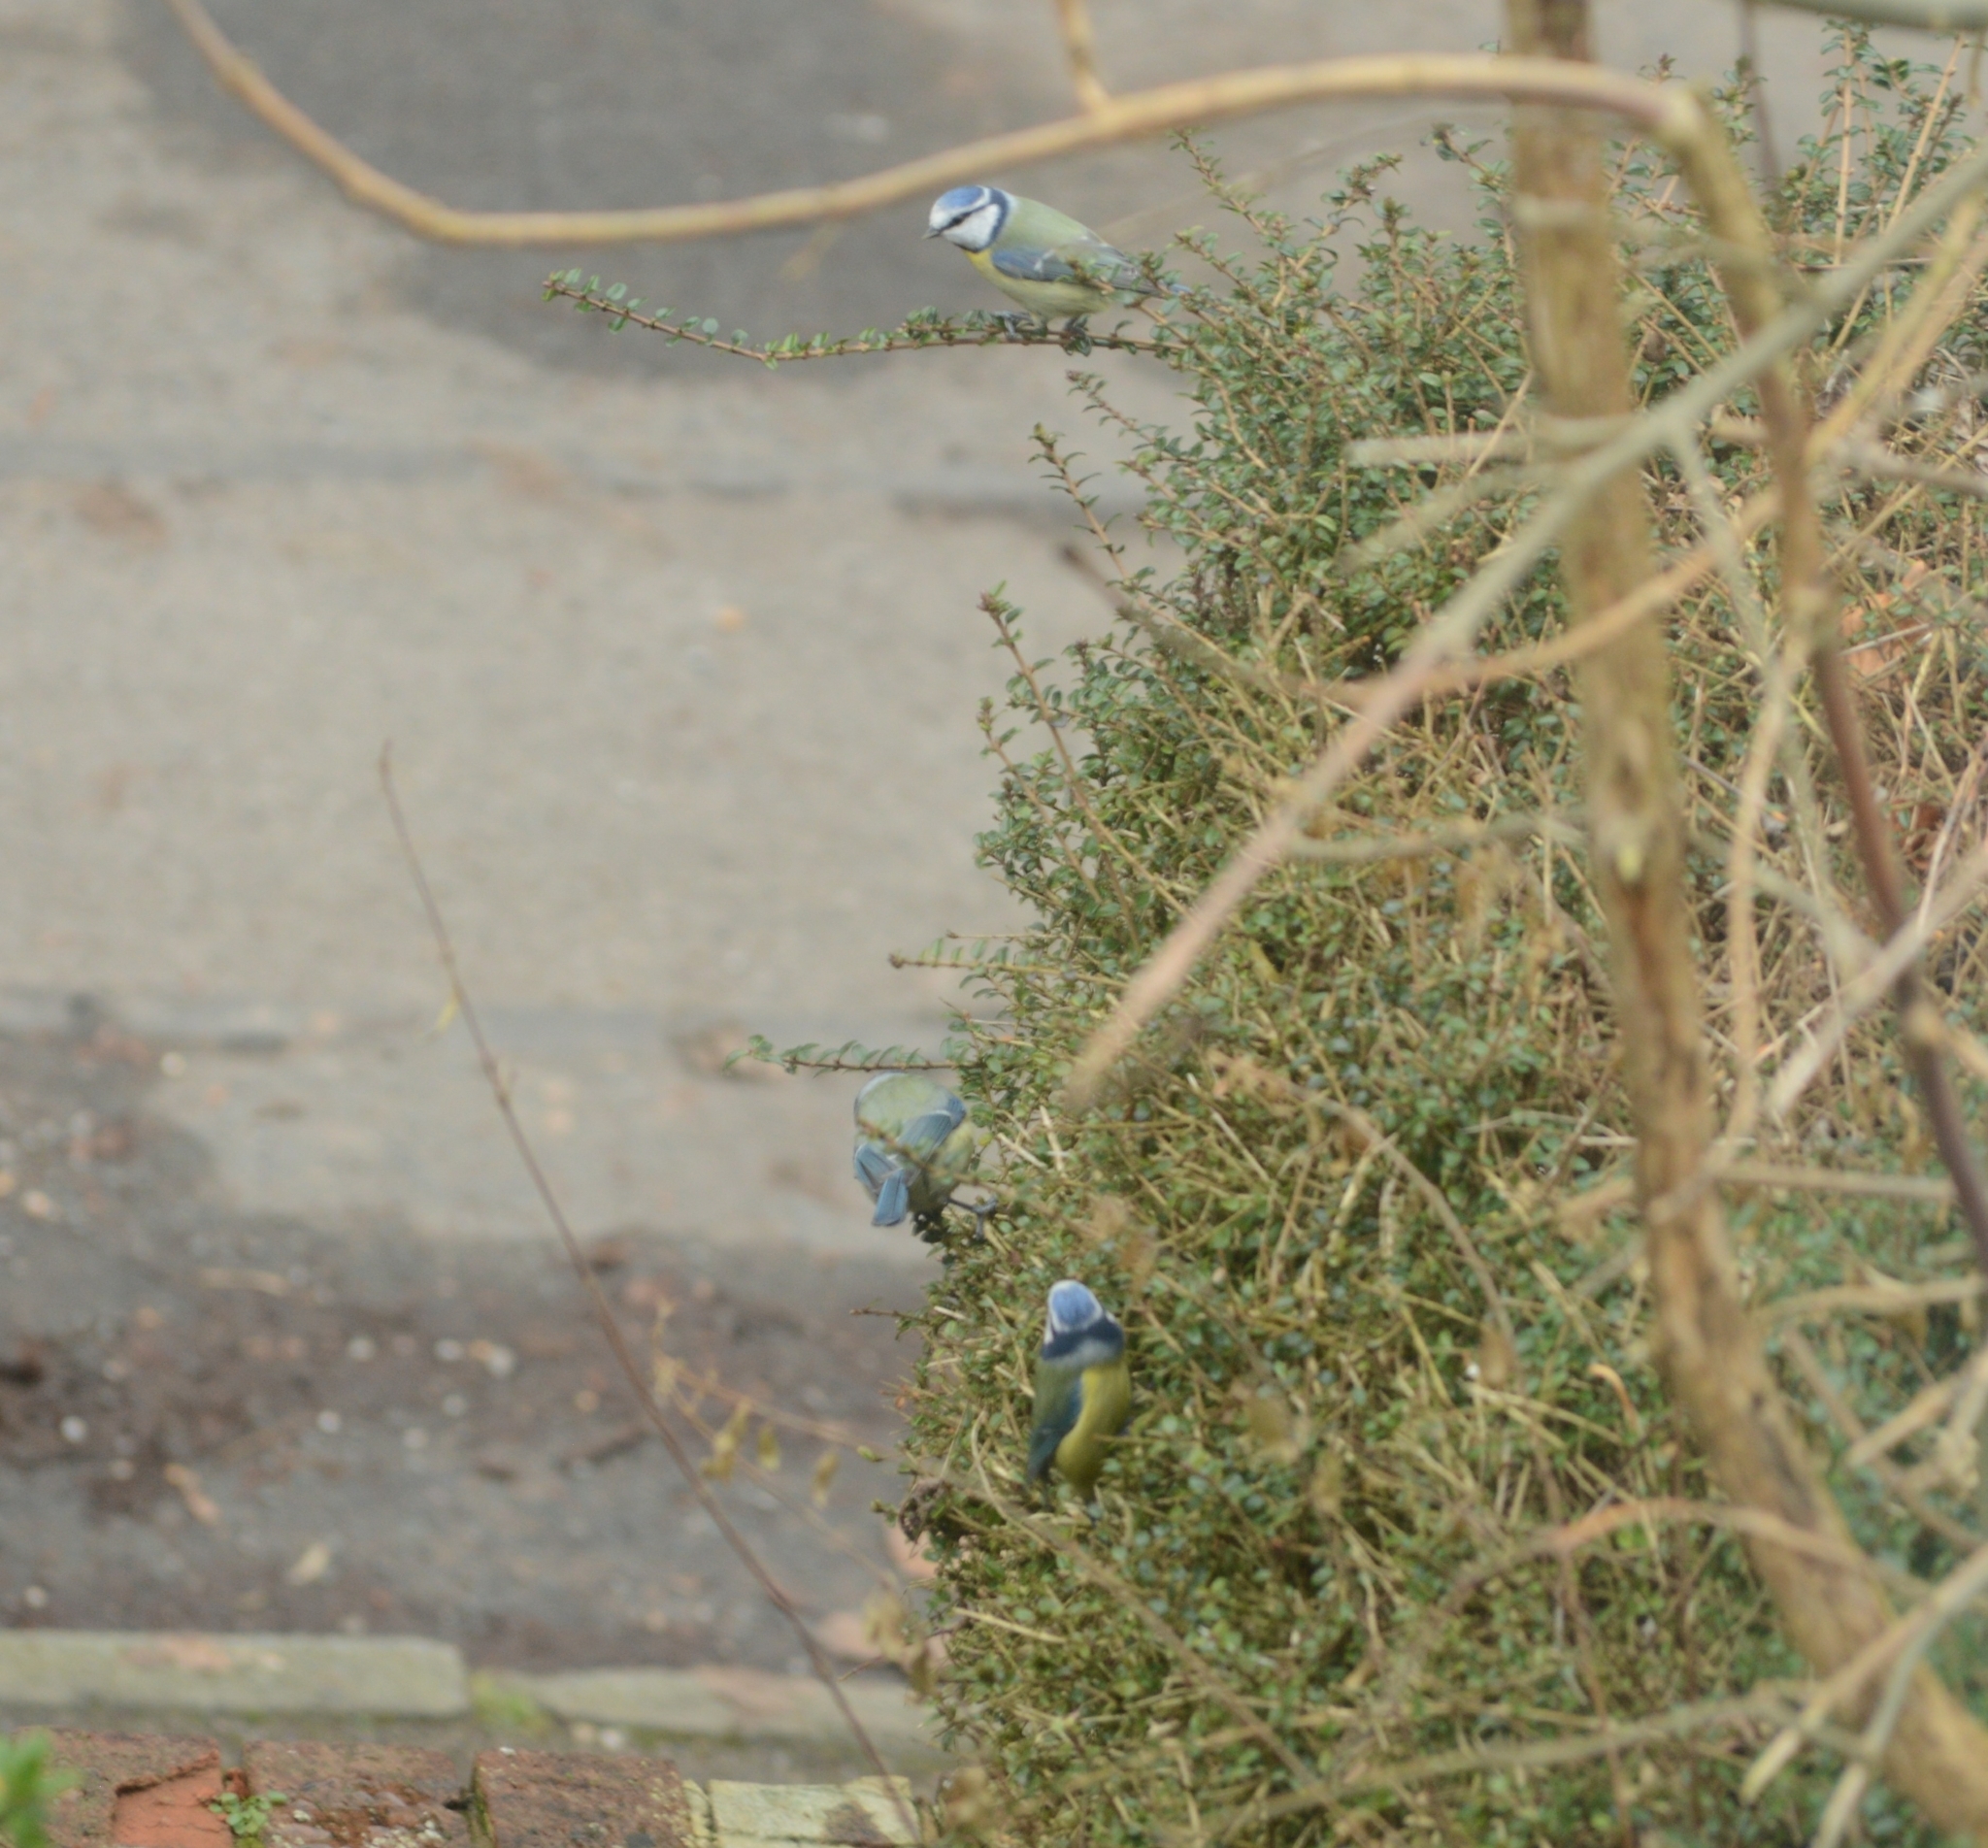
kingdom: Animalia
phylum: Chordata
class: Aves
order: Passeriformes
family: Paridae
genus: Cyanistes
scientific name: Cyanistes caeruleus
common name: Eurasian blue tit
